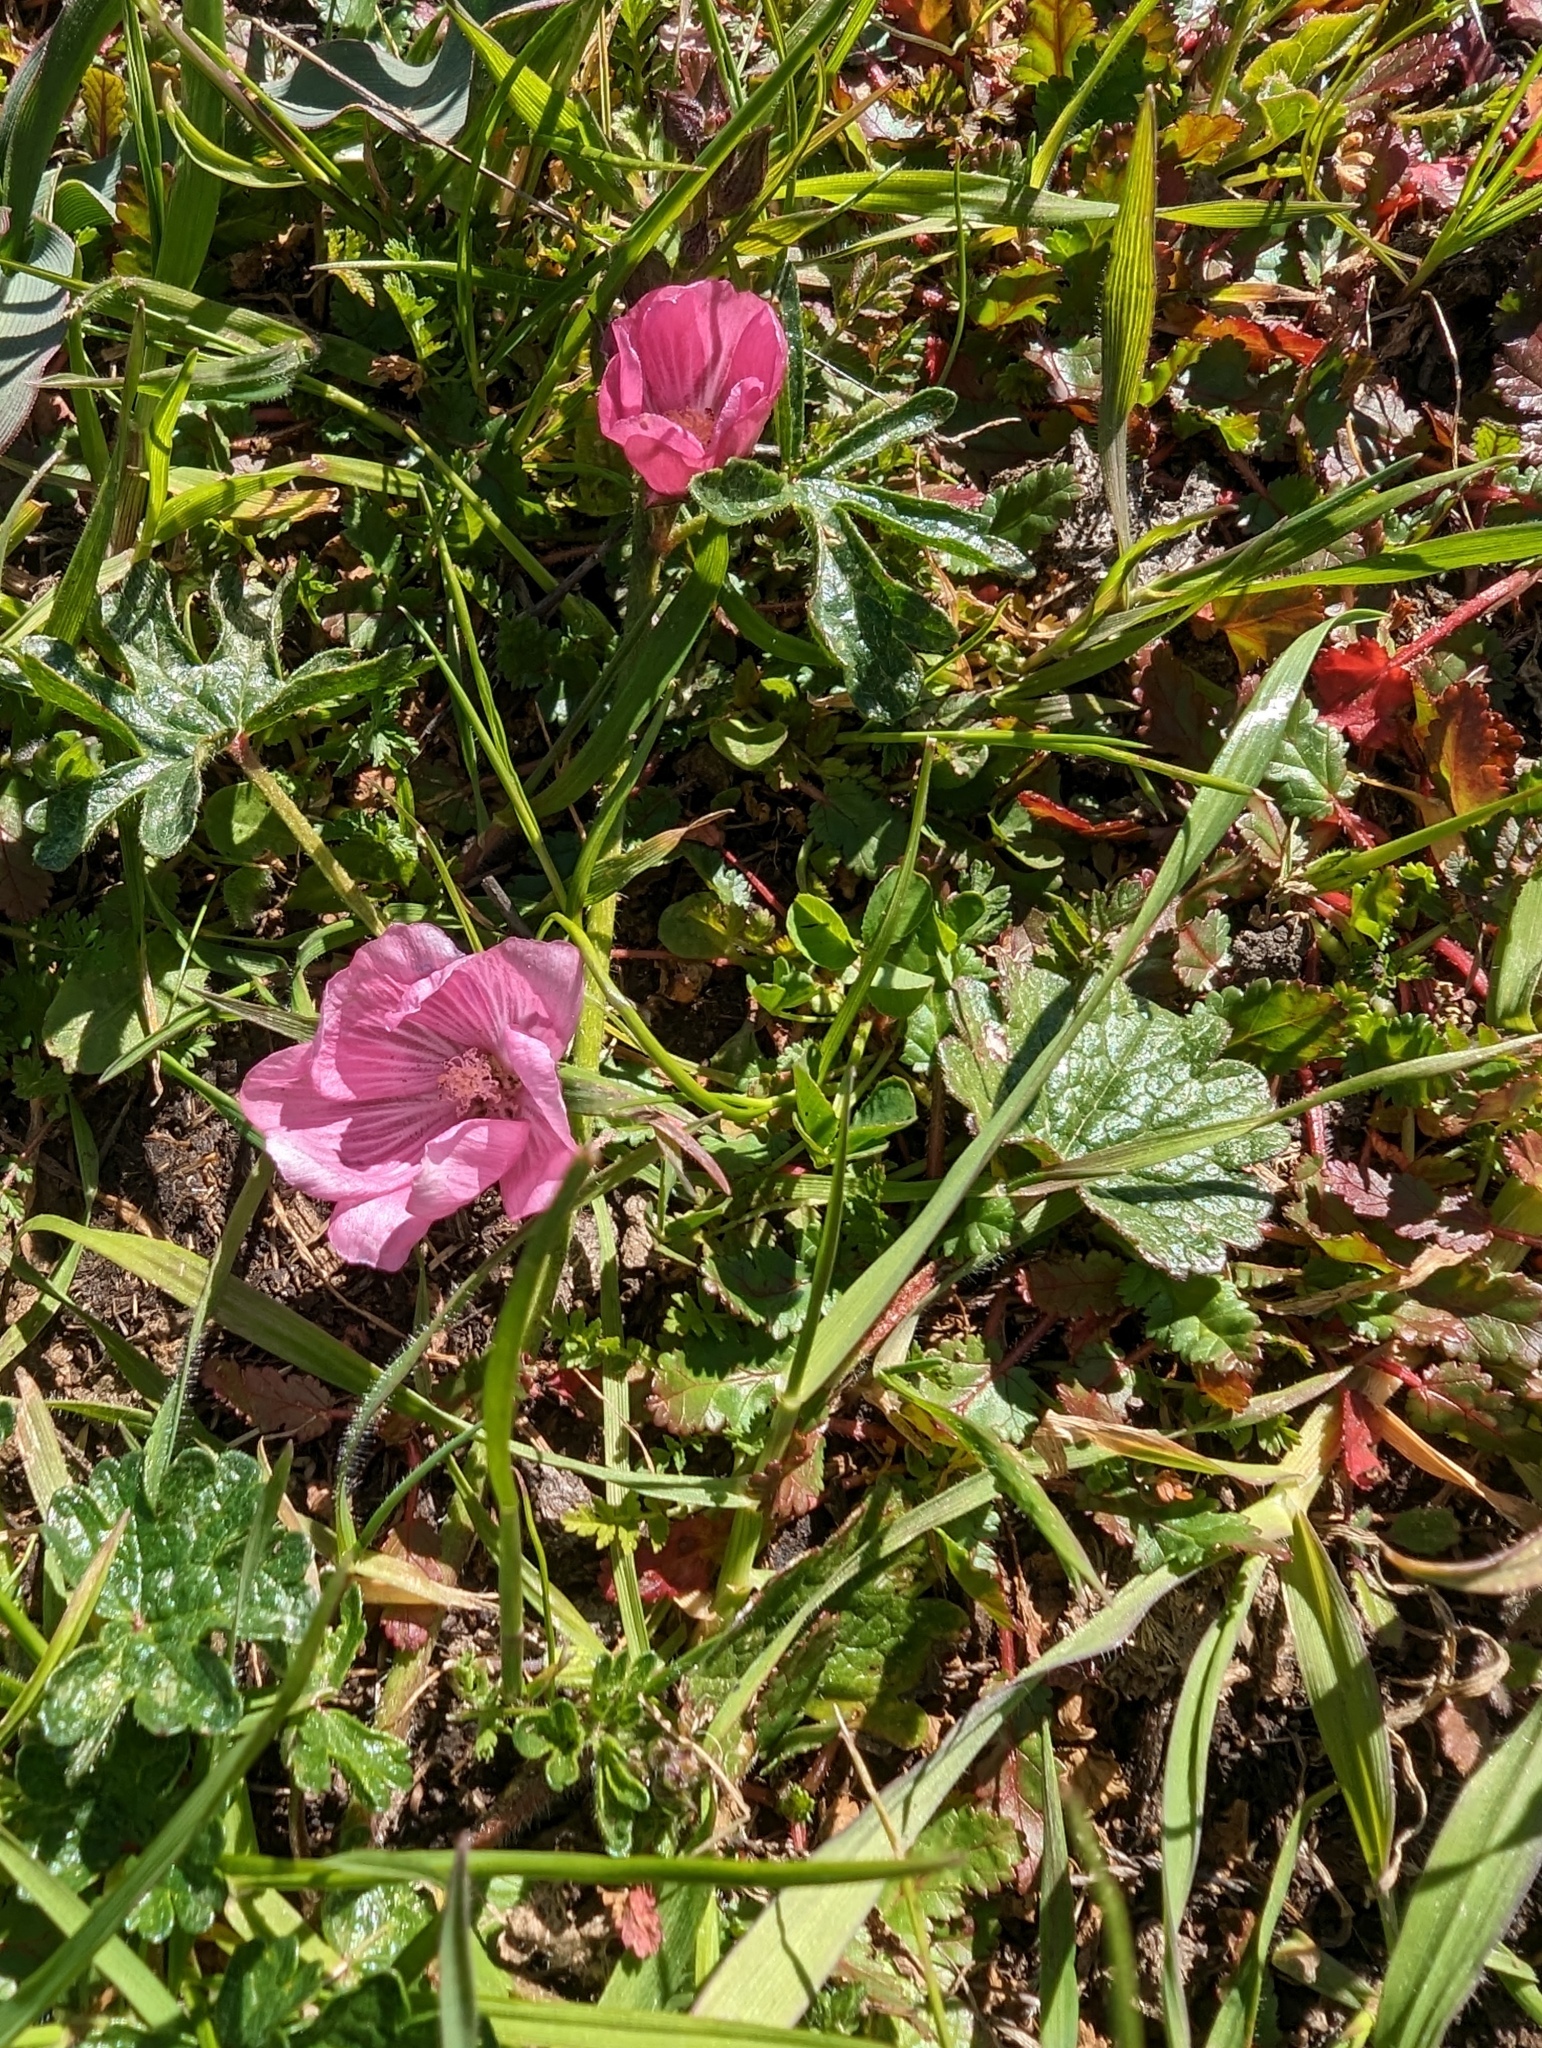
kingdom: Plantae
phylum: Tracheophyta
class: Magnoliopsida
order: Malvales
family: Malvaceae
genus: Sidalcea
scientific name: Sidalcea malviflora
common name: Greek mallow
